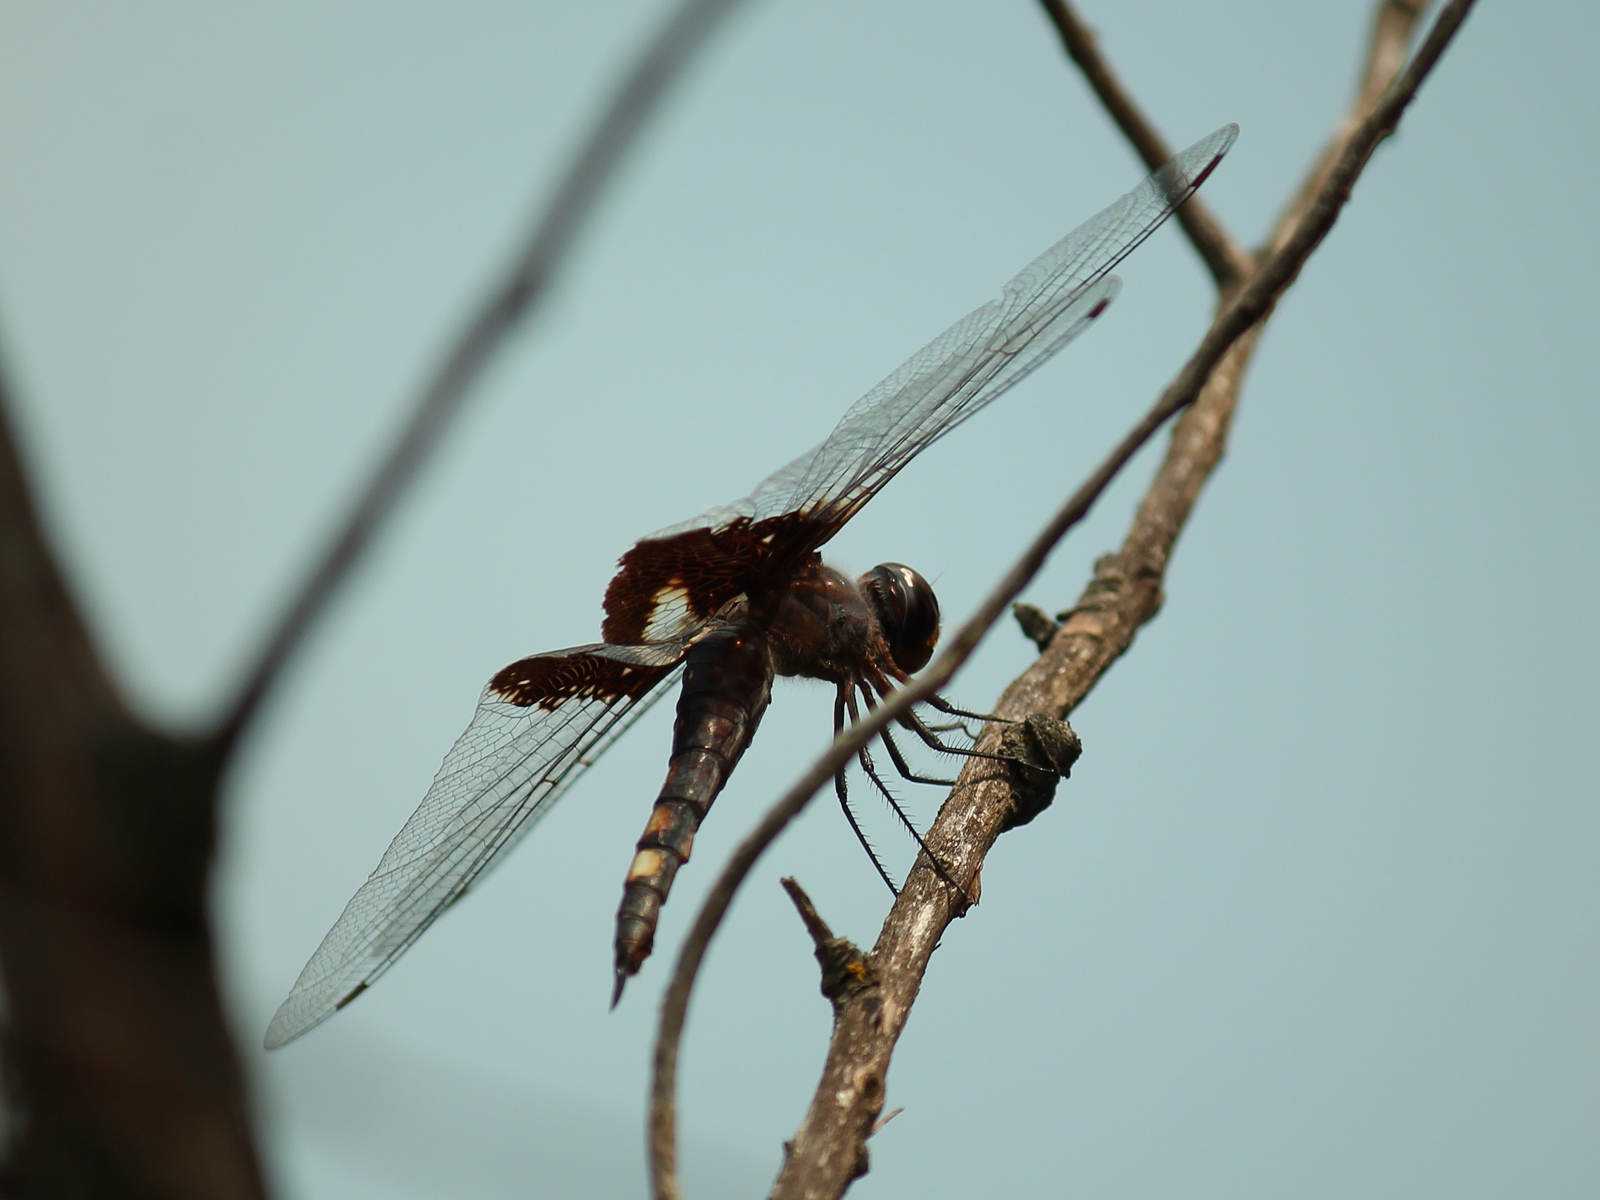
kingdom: Animalia
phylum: Arthropoda
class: Insecta
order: Odonata
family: Libellulidae
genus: Tramea
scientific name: Tramea lacerata
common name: Black saddlebags
